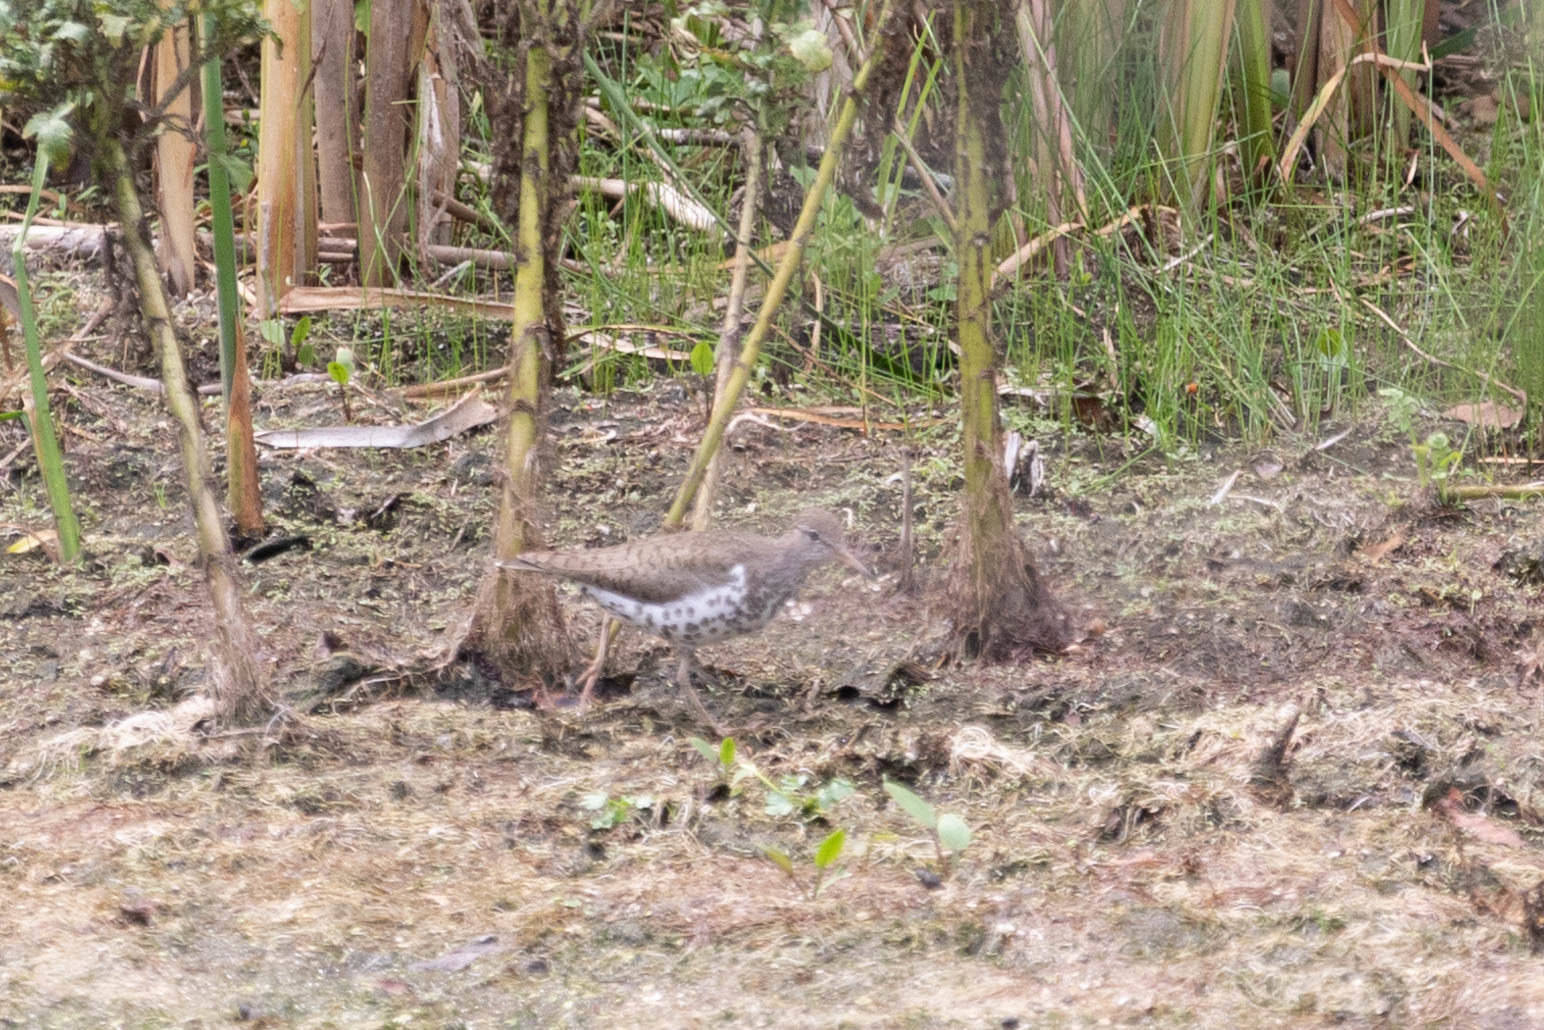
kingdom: Animalia
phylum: Chordata
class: Aves
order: Charadriiformes
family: Scolopacidae
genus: Actitis
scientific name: Actitis macularius
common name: Spotted sandpiper
